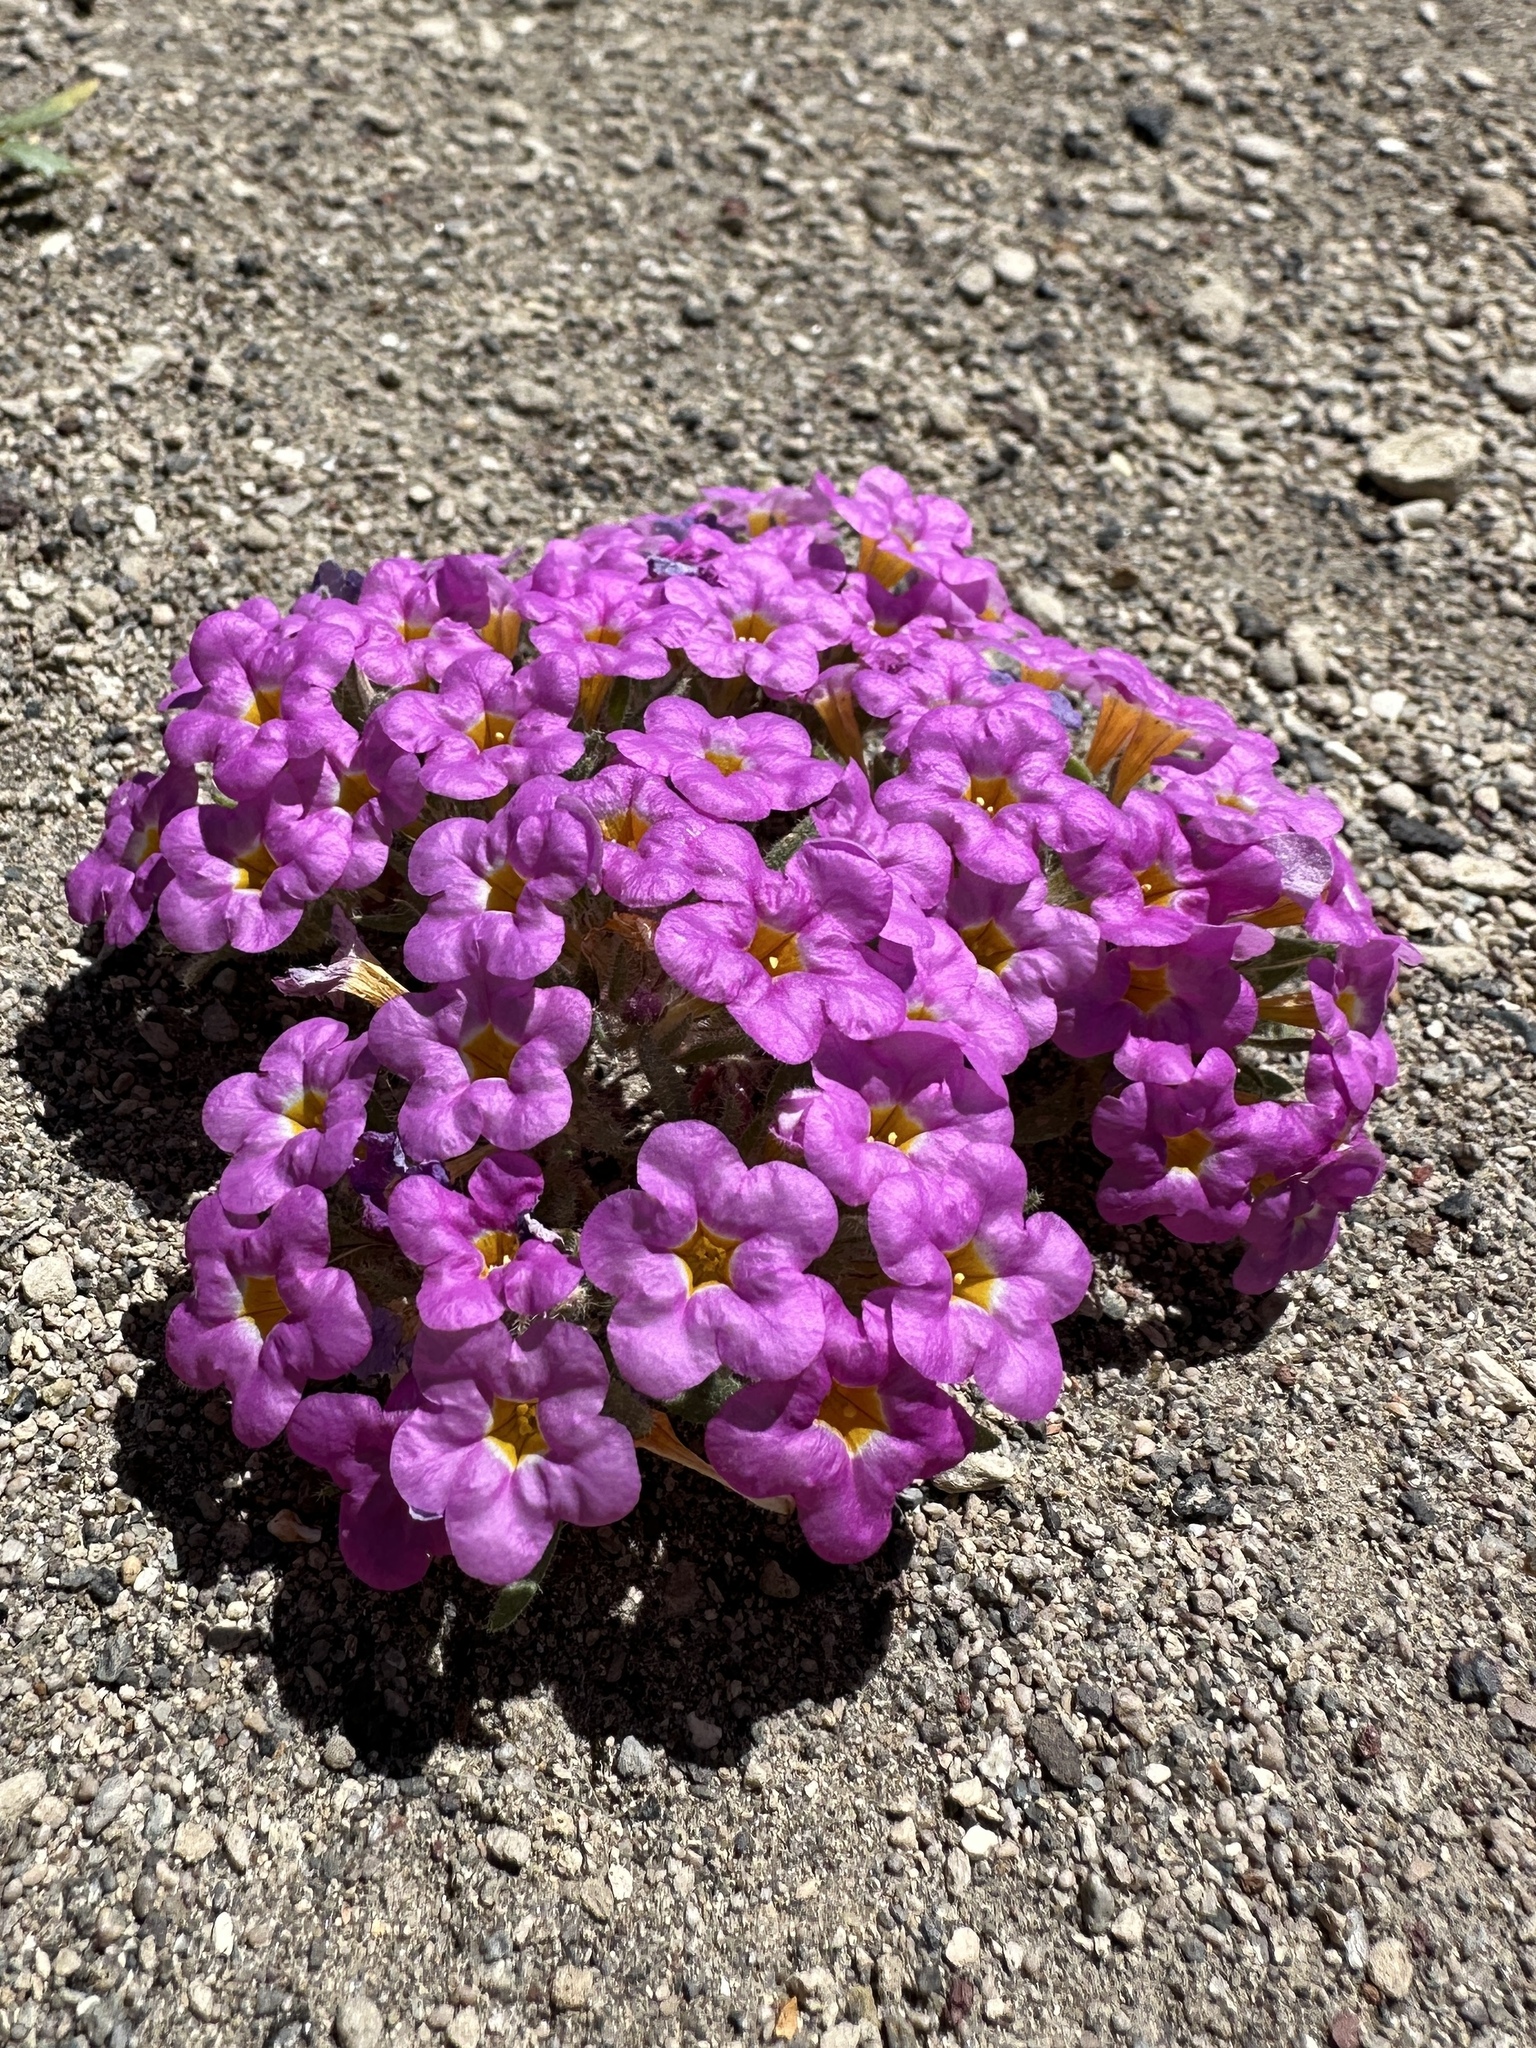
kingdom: Plantae
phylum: Tracheophyta
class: Magnoliopsida
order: Boraginales
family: Namaceae
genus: Nama
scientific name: Nama aretioides
